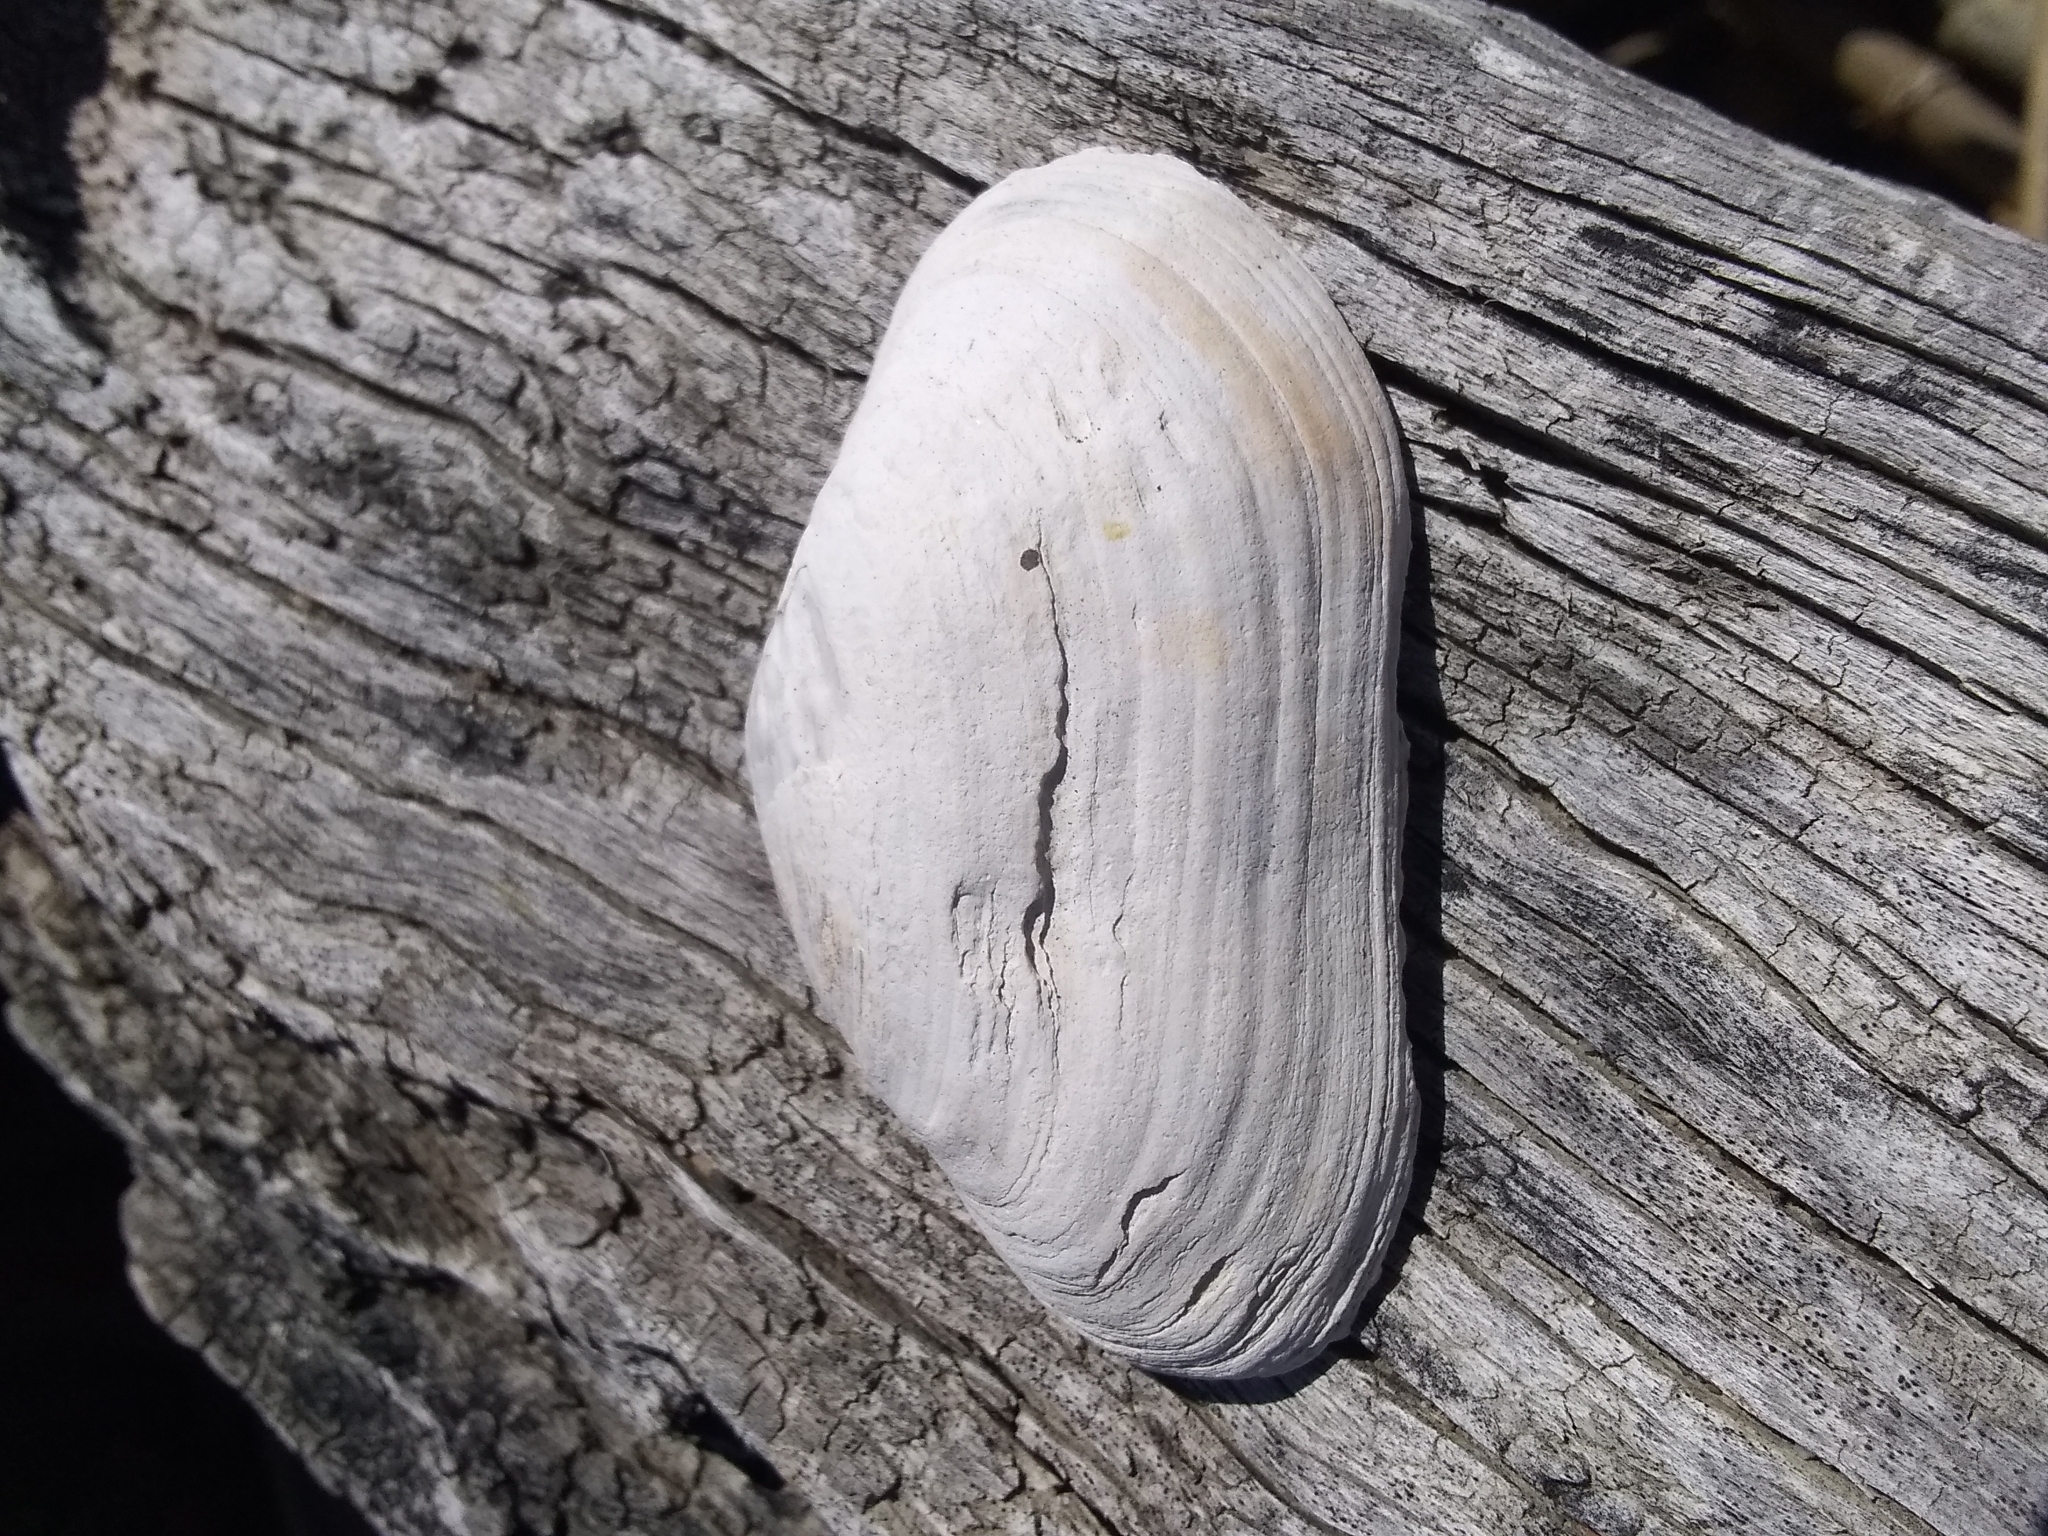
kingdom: Animalia
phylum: Mollusca
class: Bivalvia
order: Myida
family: Myidae
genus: Mya
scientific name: Mya arenaria
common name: Soft-shelled clam
